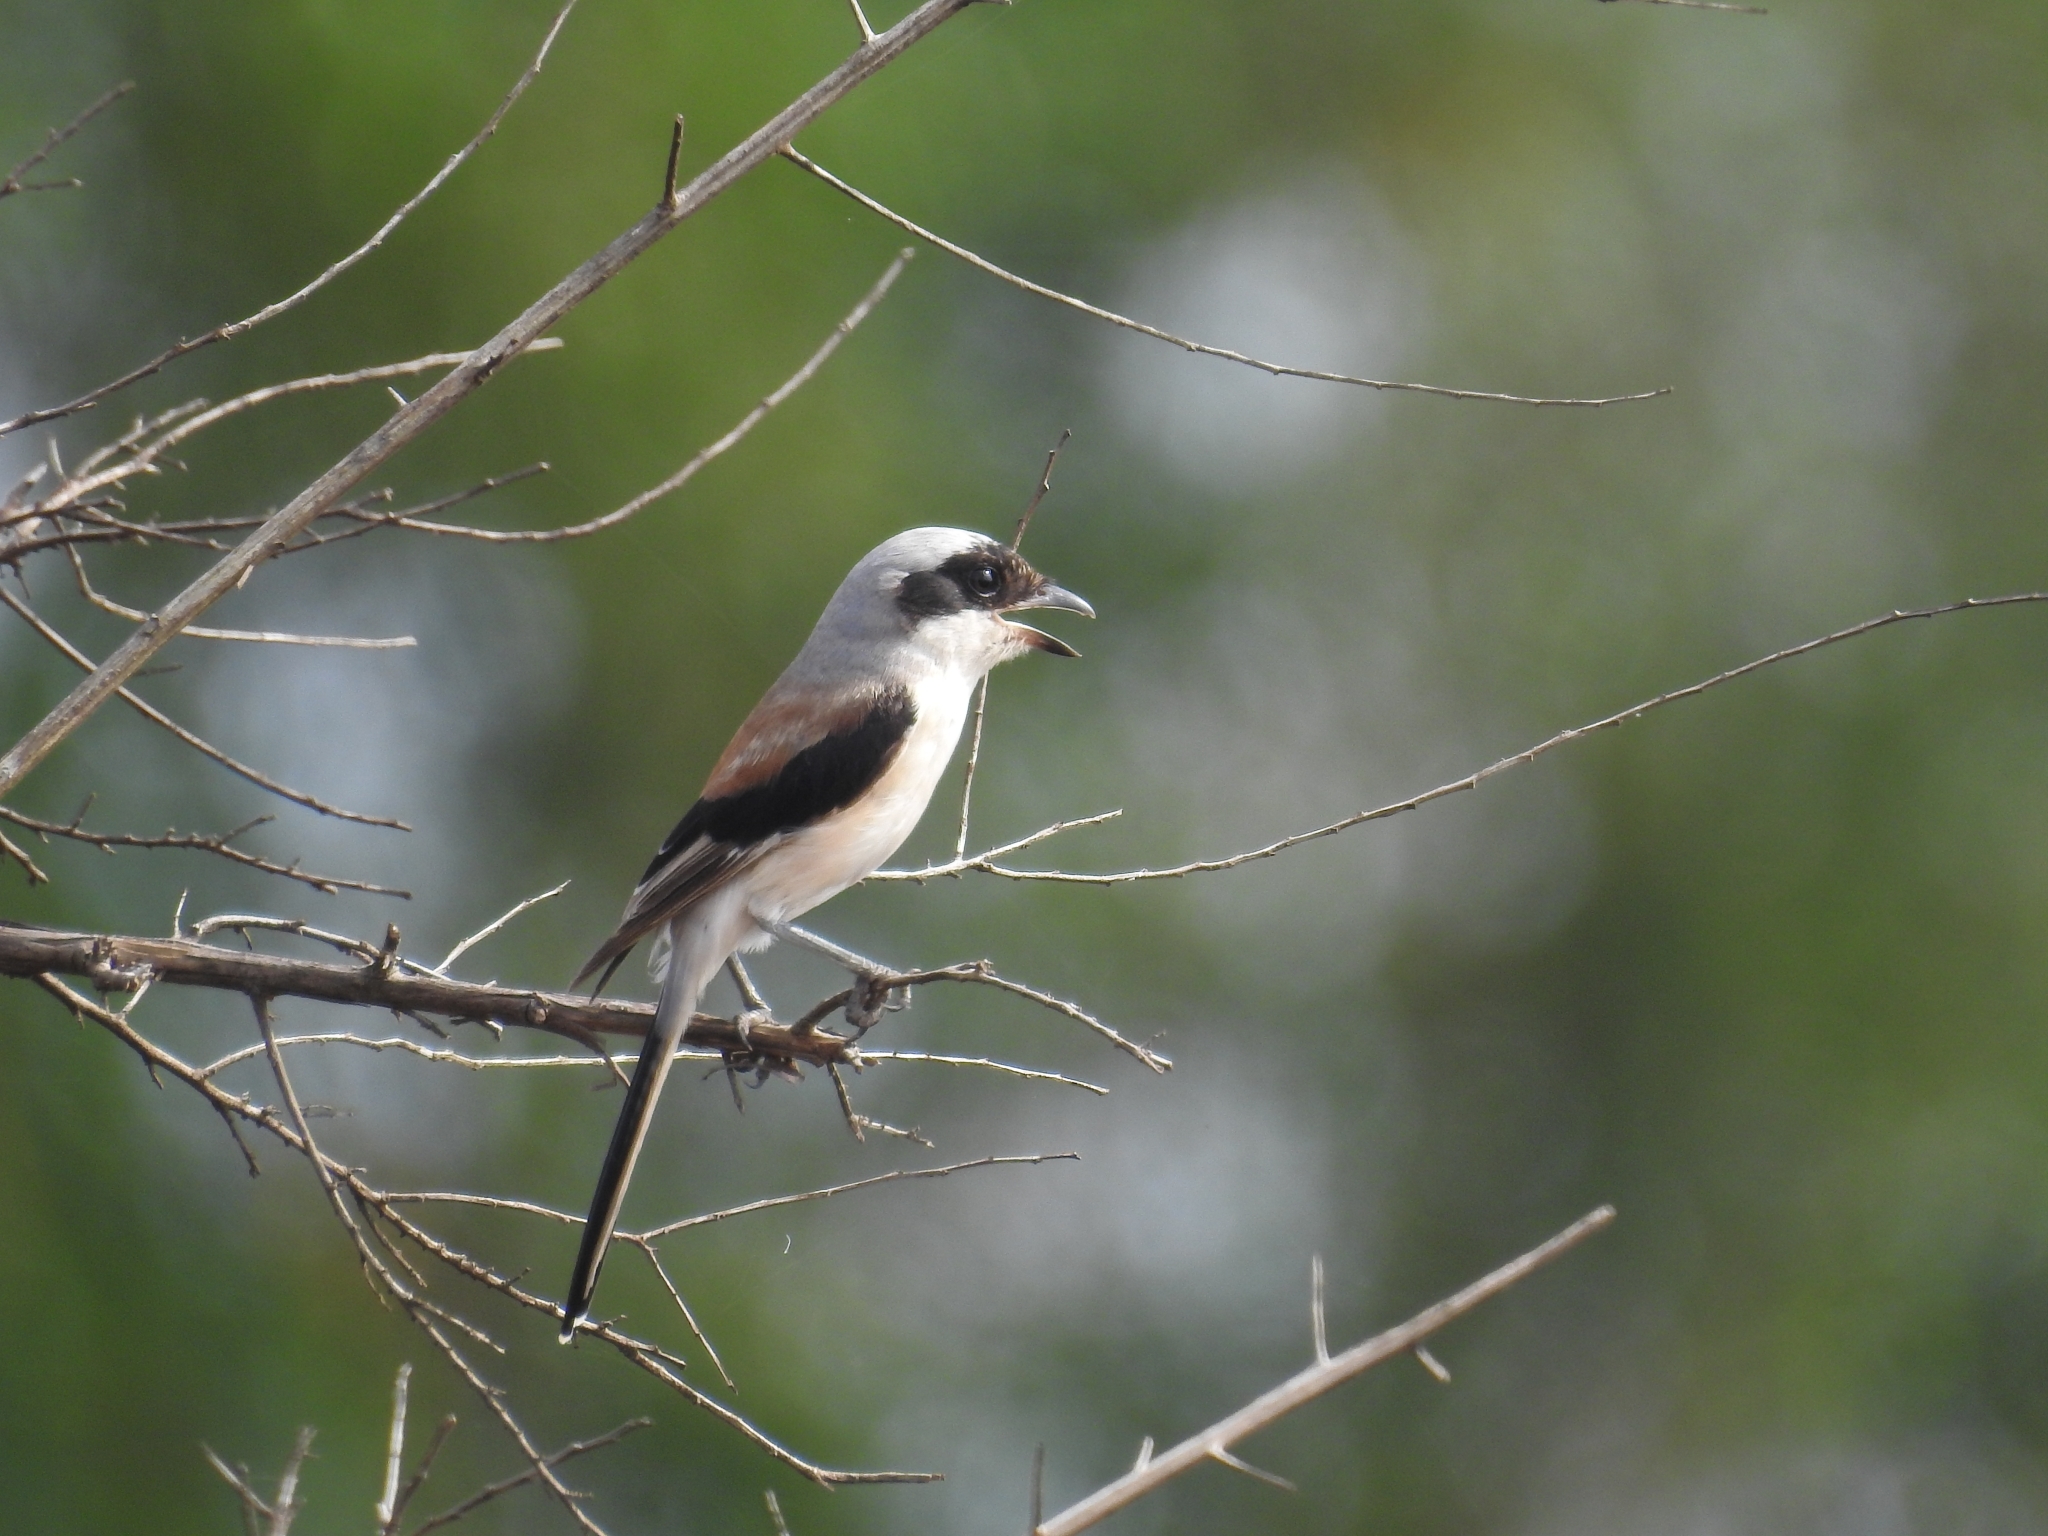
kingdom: Animalia
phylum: Chordata
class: Aves
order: Passeriformes
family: Laniidae
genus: Lanius
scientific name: Lanius vittatus
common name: Bay-backed shrike
